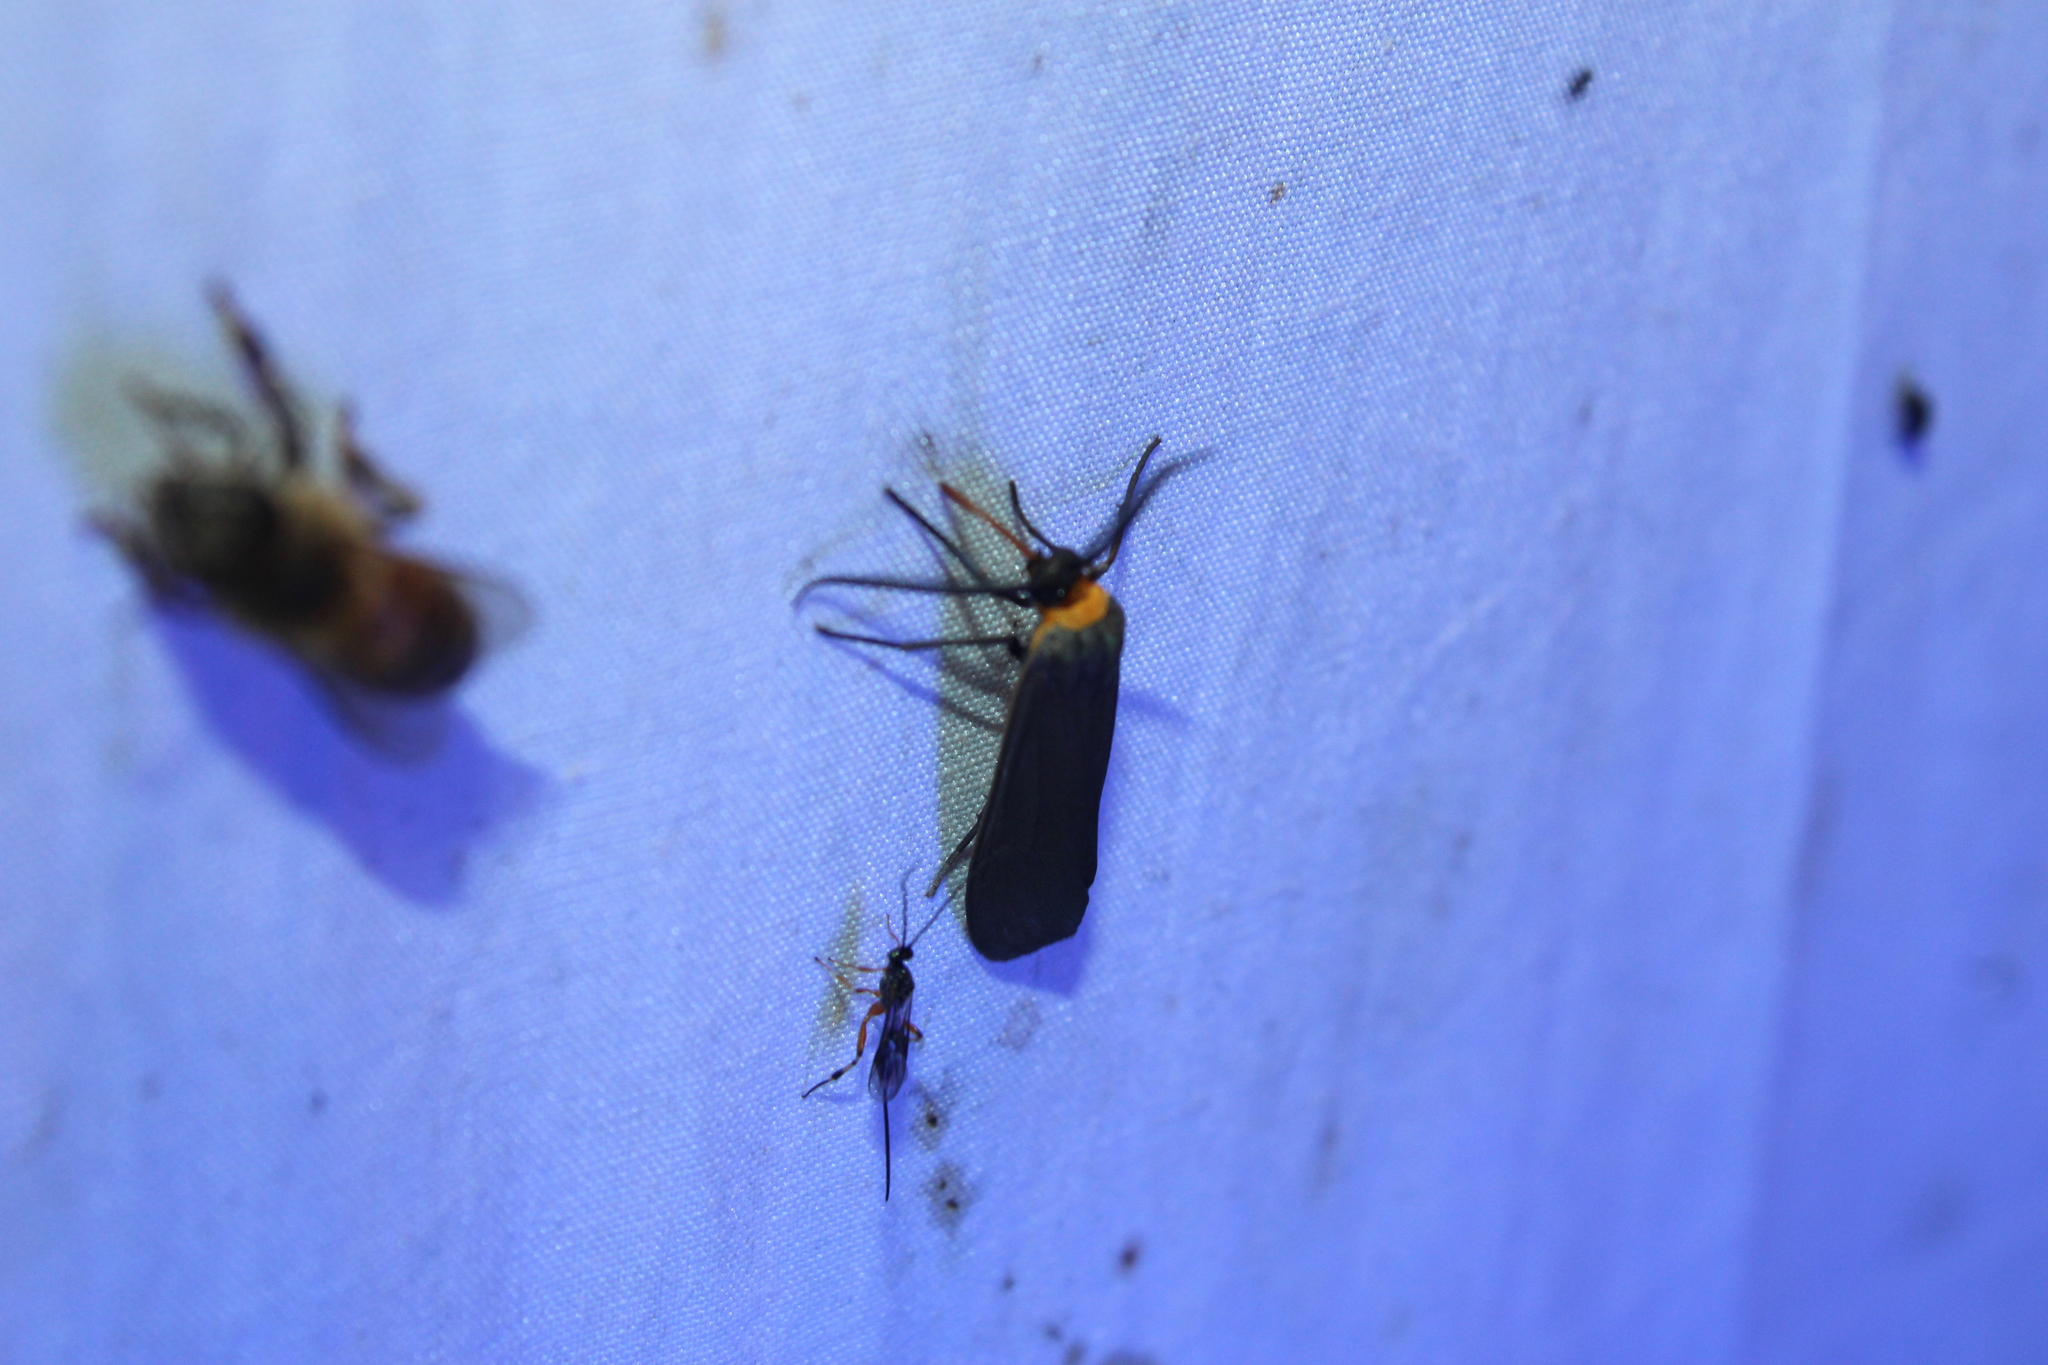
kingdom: Animalia
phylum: Arthropoda
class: Insecta
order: Lepidoptera
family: Erebidae
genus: Cisseps
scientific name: Cisseps fulvicollis
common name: Yellow-collared scape moth
